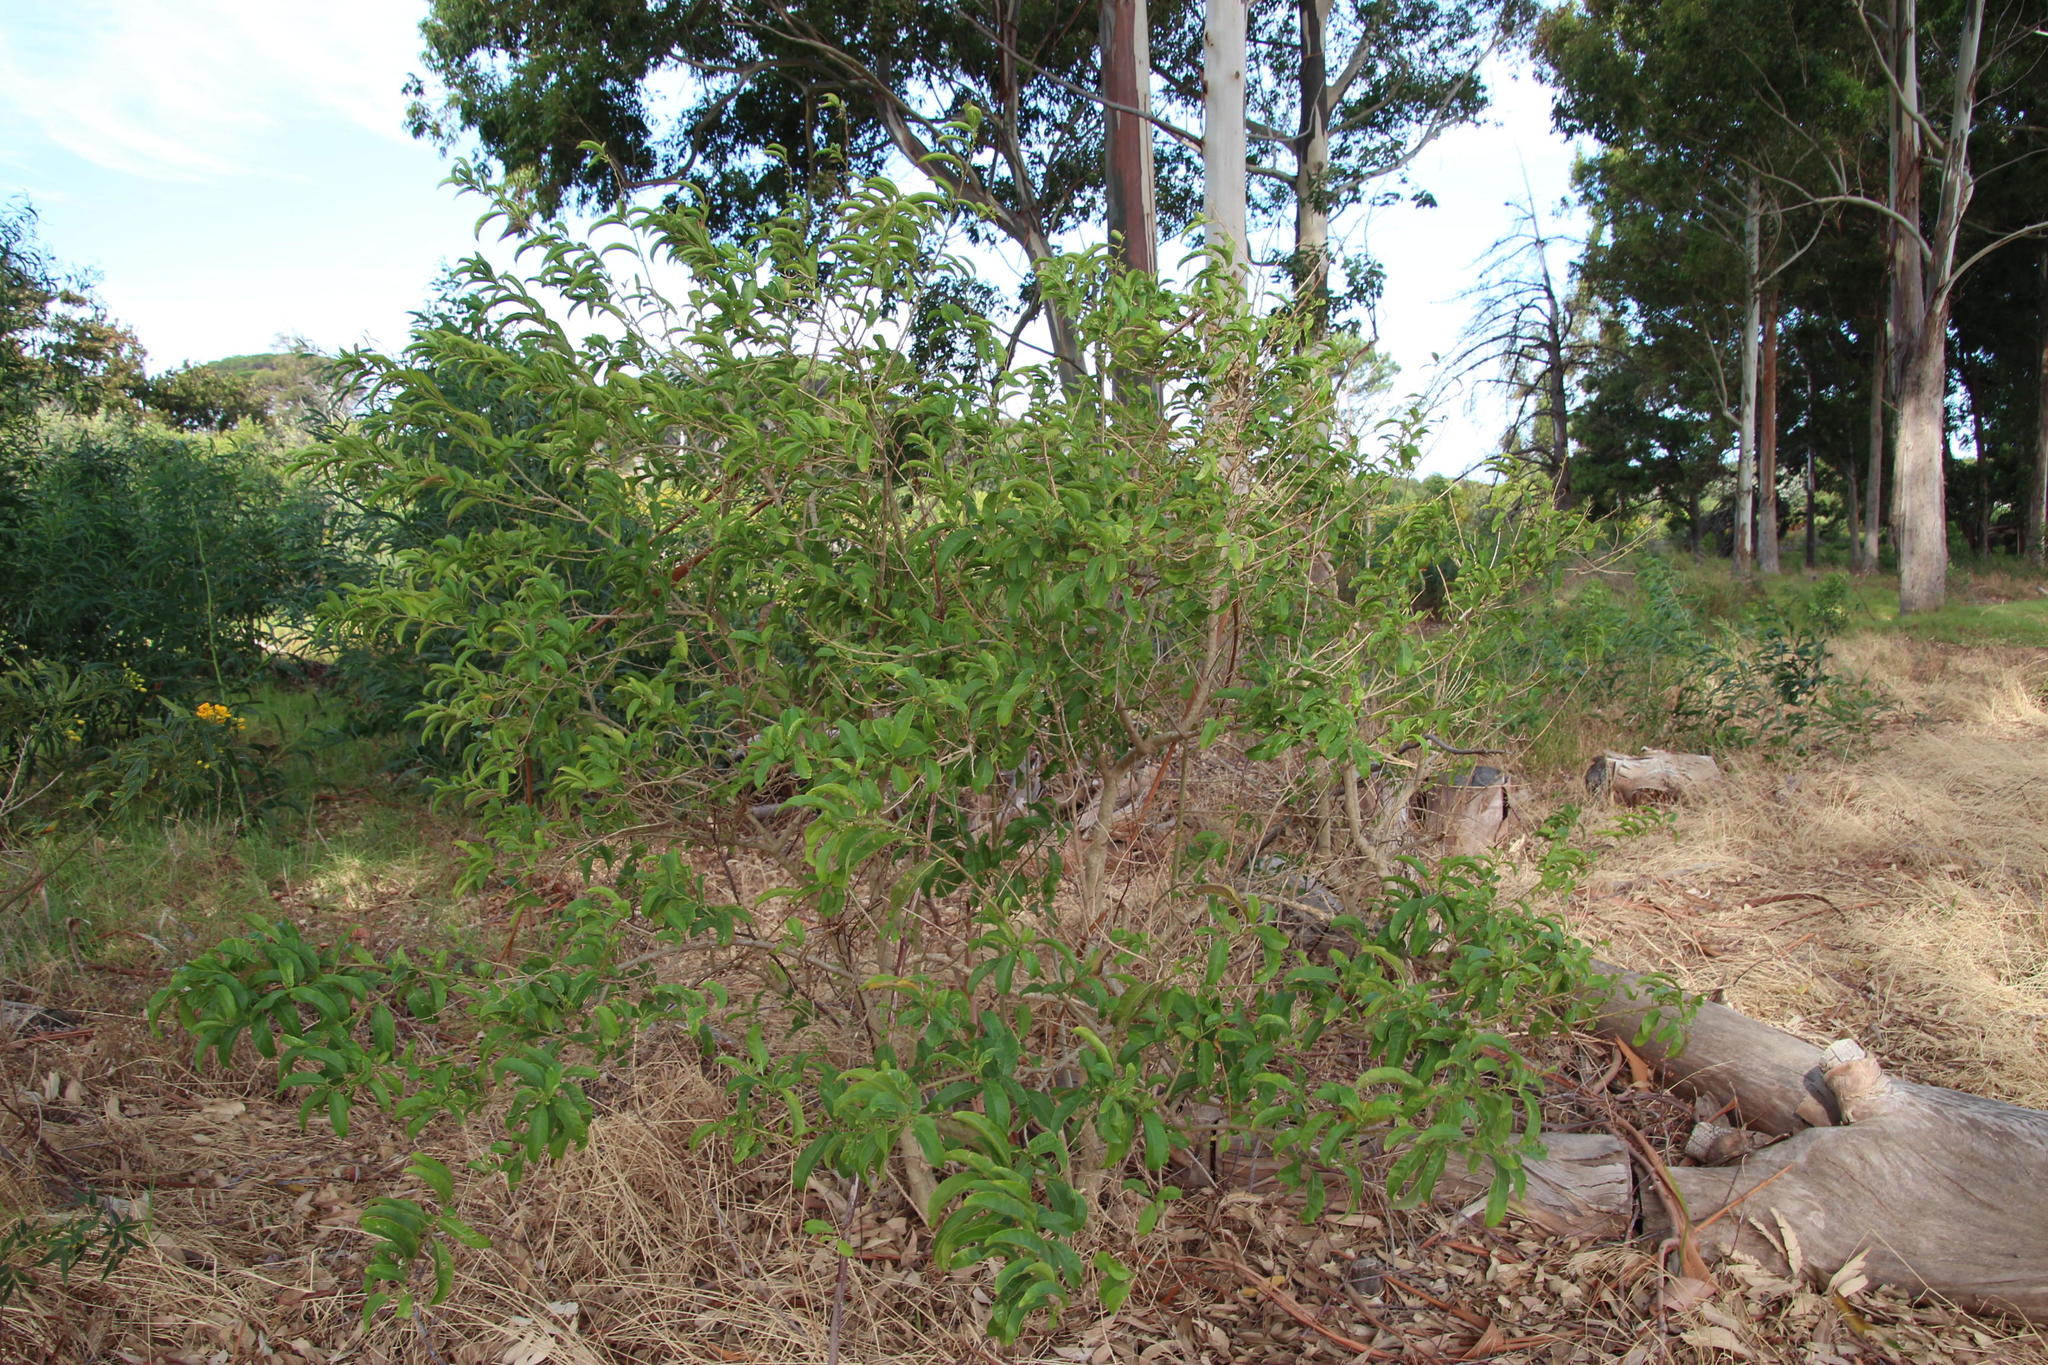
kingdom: Plantae
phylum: Tracheophyta
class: Magnoliopsida
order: Solanales
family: Solanaceae
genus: Cestrum
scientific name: Cestrum laevigatum
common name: Inkberry
